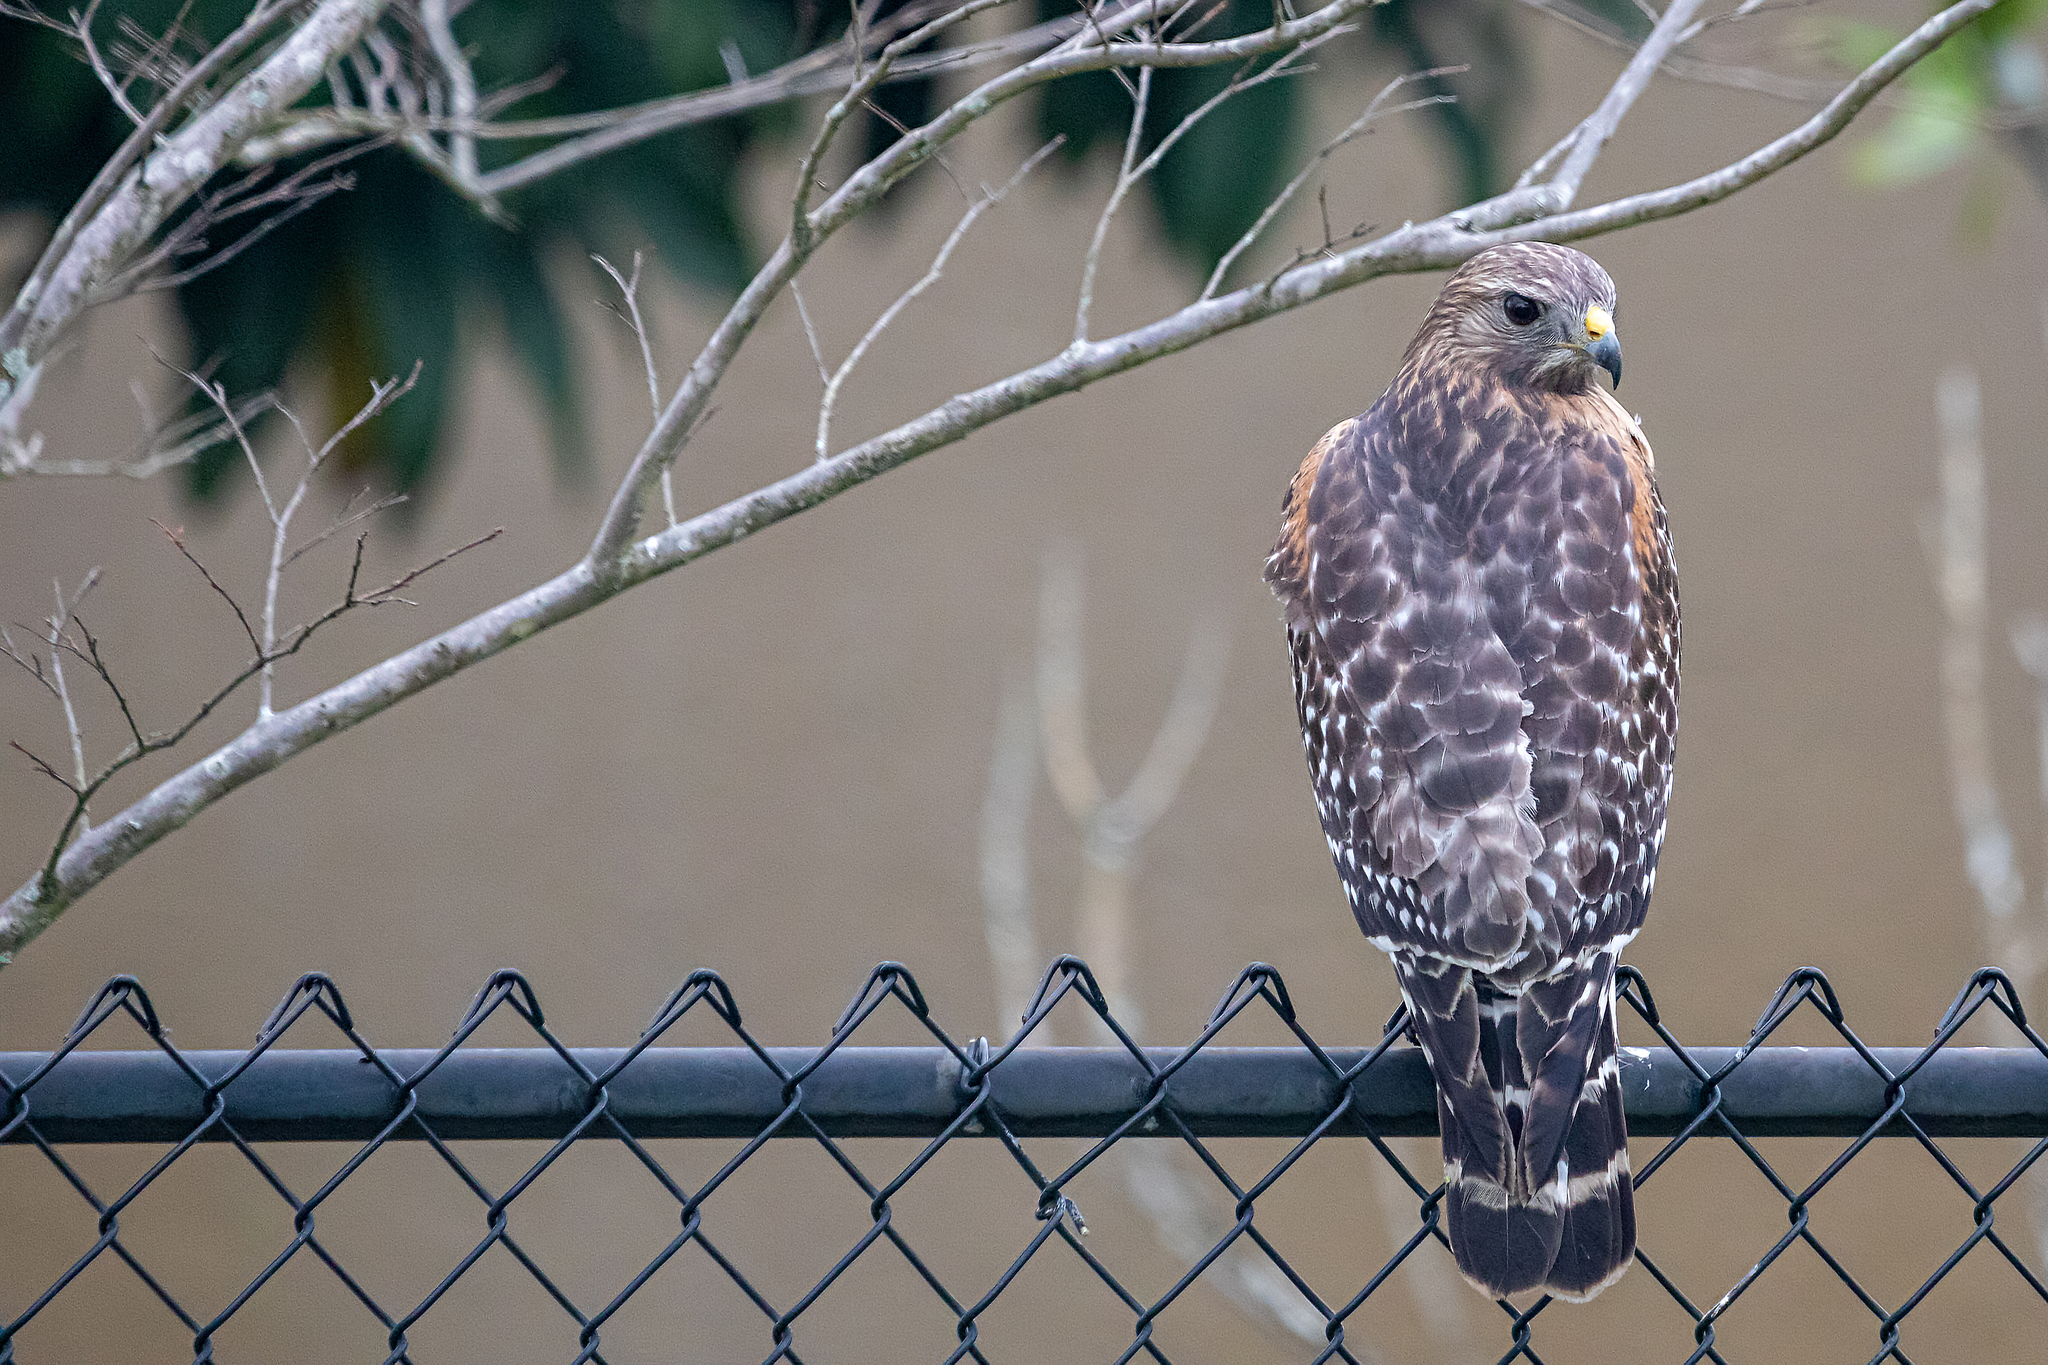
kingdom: Animalia
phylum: Chordata
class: Aves
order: Accipitriformes
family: Accipitridae
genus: Buteo
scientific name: Buteo lineatus
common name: Red-shouldered hawk
